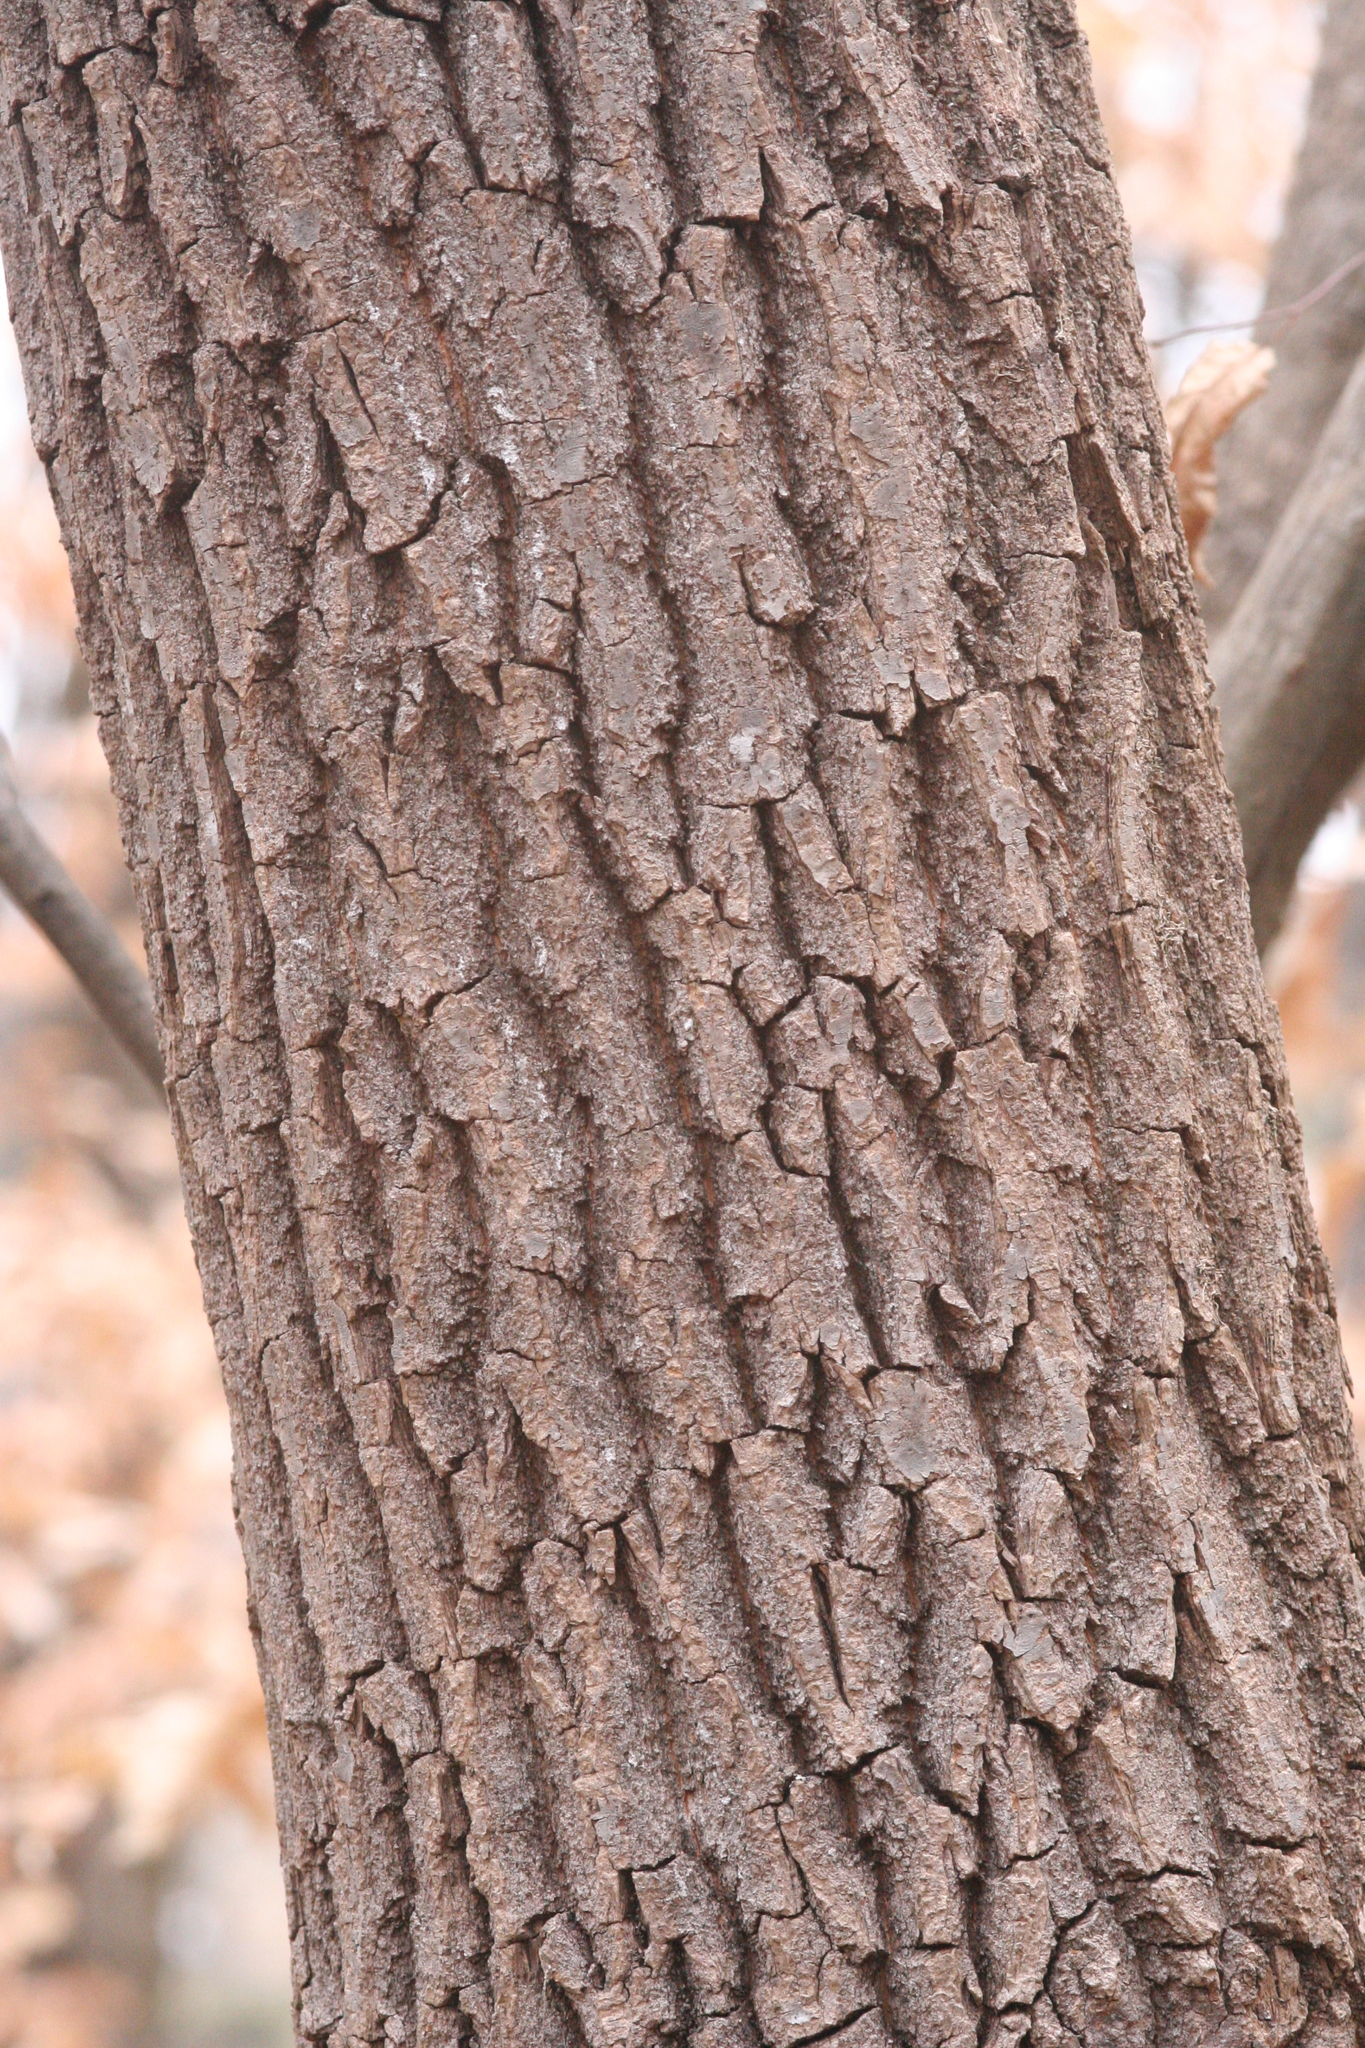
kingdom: Plantae
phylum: Tracheophyta
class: Magnoliopsida
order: Ericales
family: Ericaceae
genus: Oxydendrum
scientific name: Oxydendrum arboreum
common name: Sourwood
